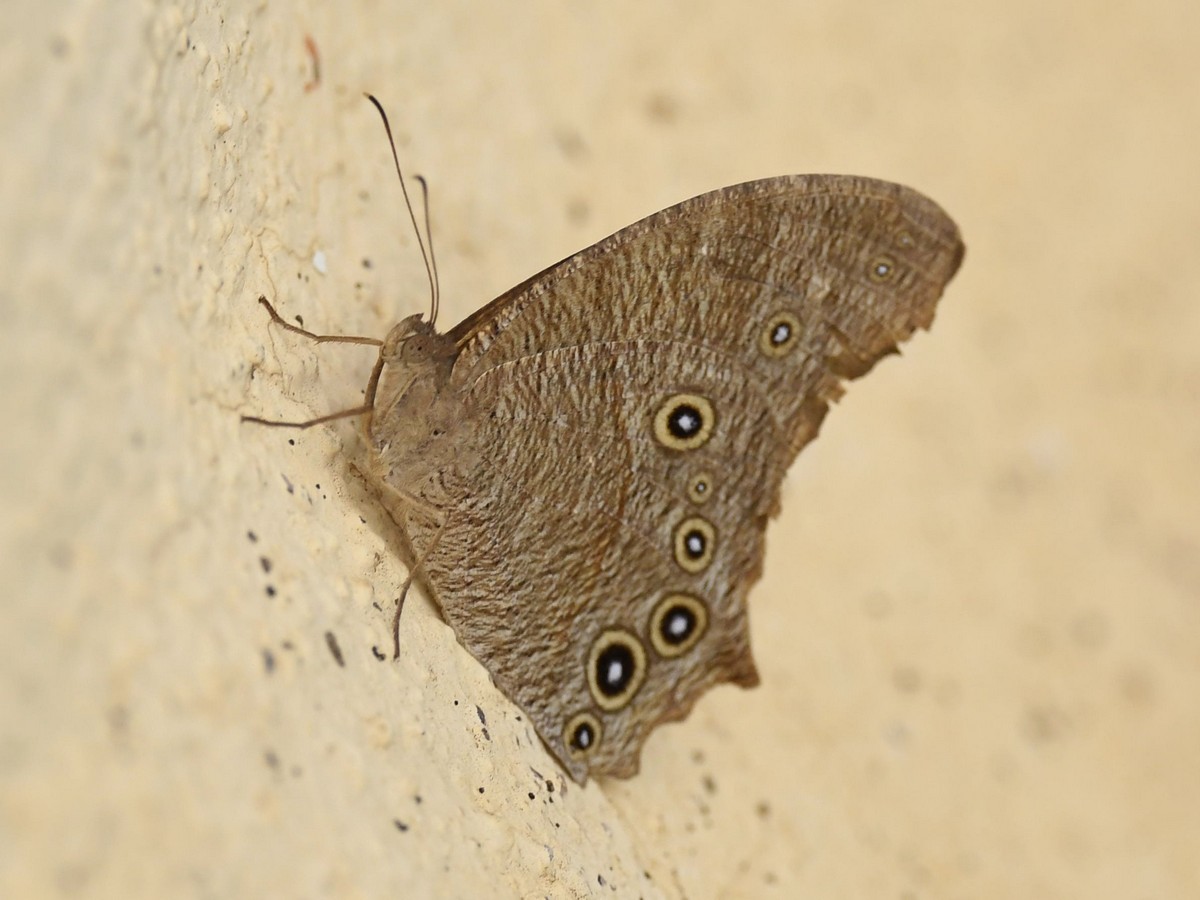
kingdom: Animalia
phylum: Arthropoda
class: Insecta
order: Lepidoptera
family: Nymphalidae
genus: Melanitis
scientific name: Melanitis leda
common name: Twilight brown
